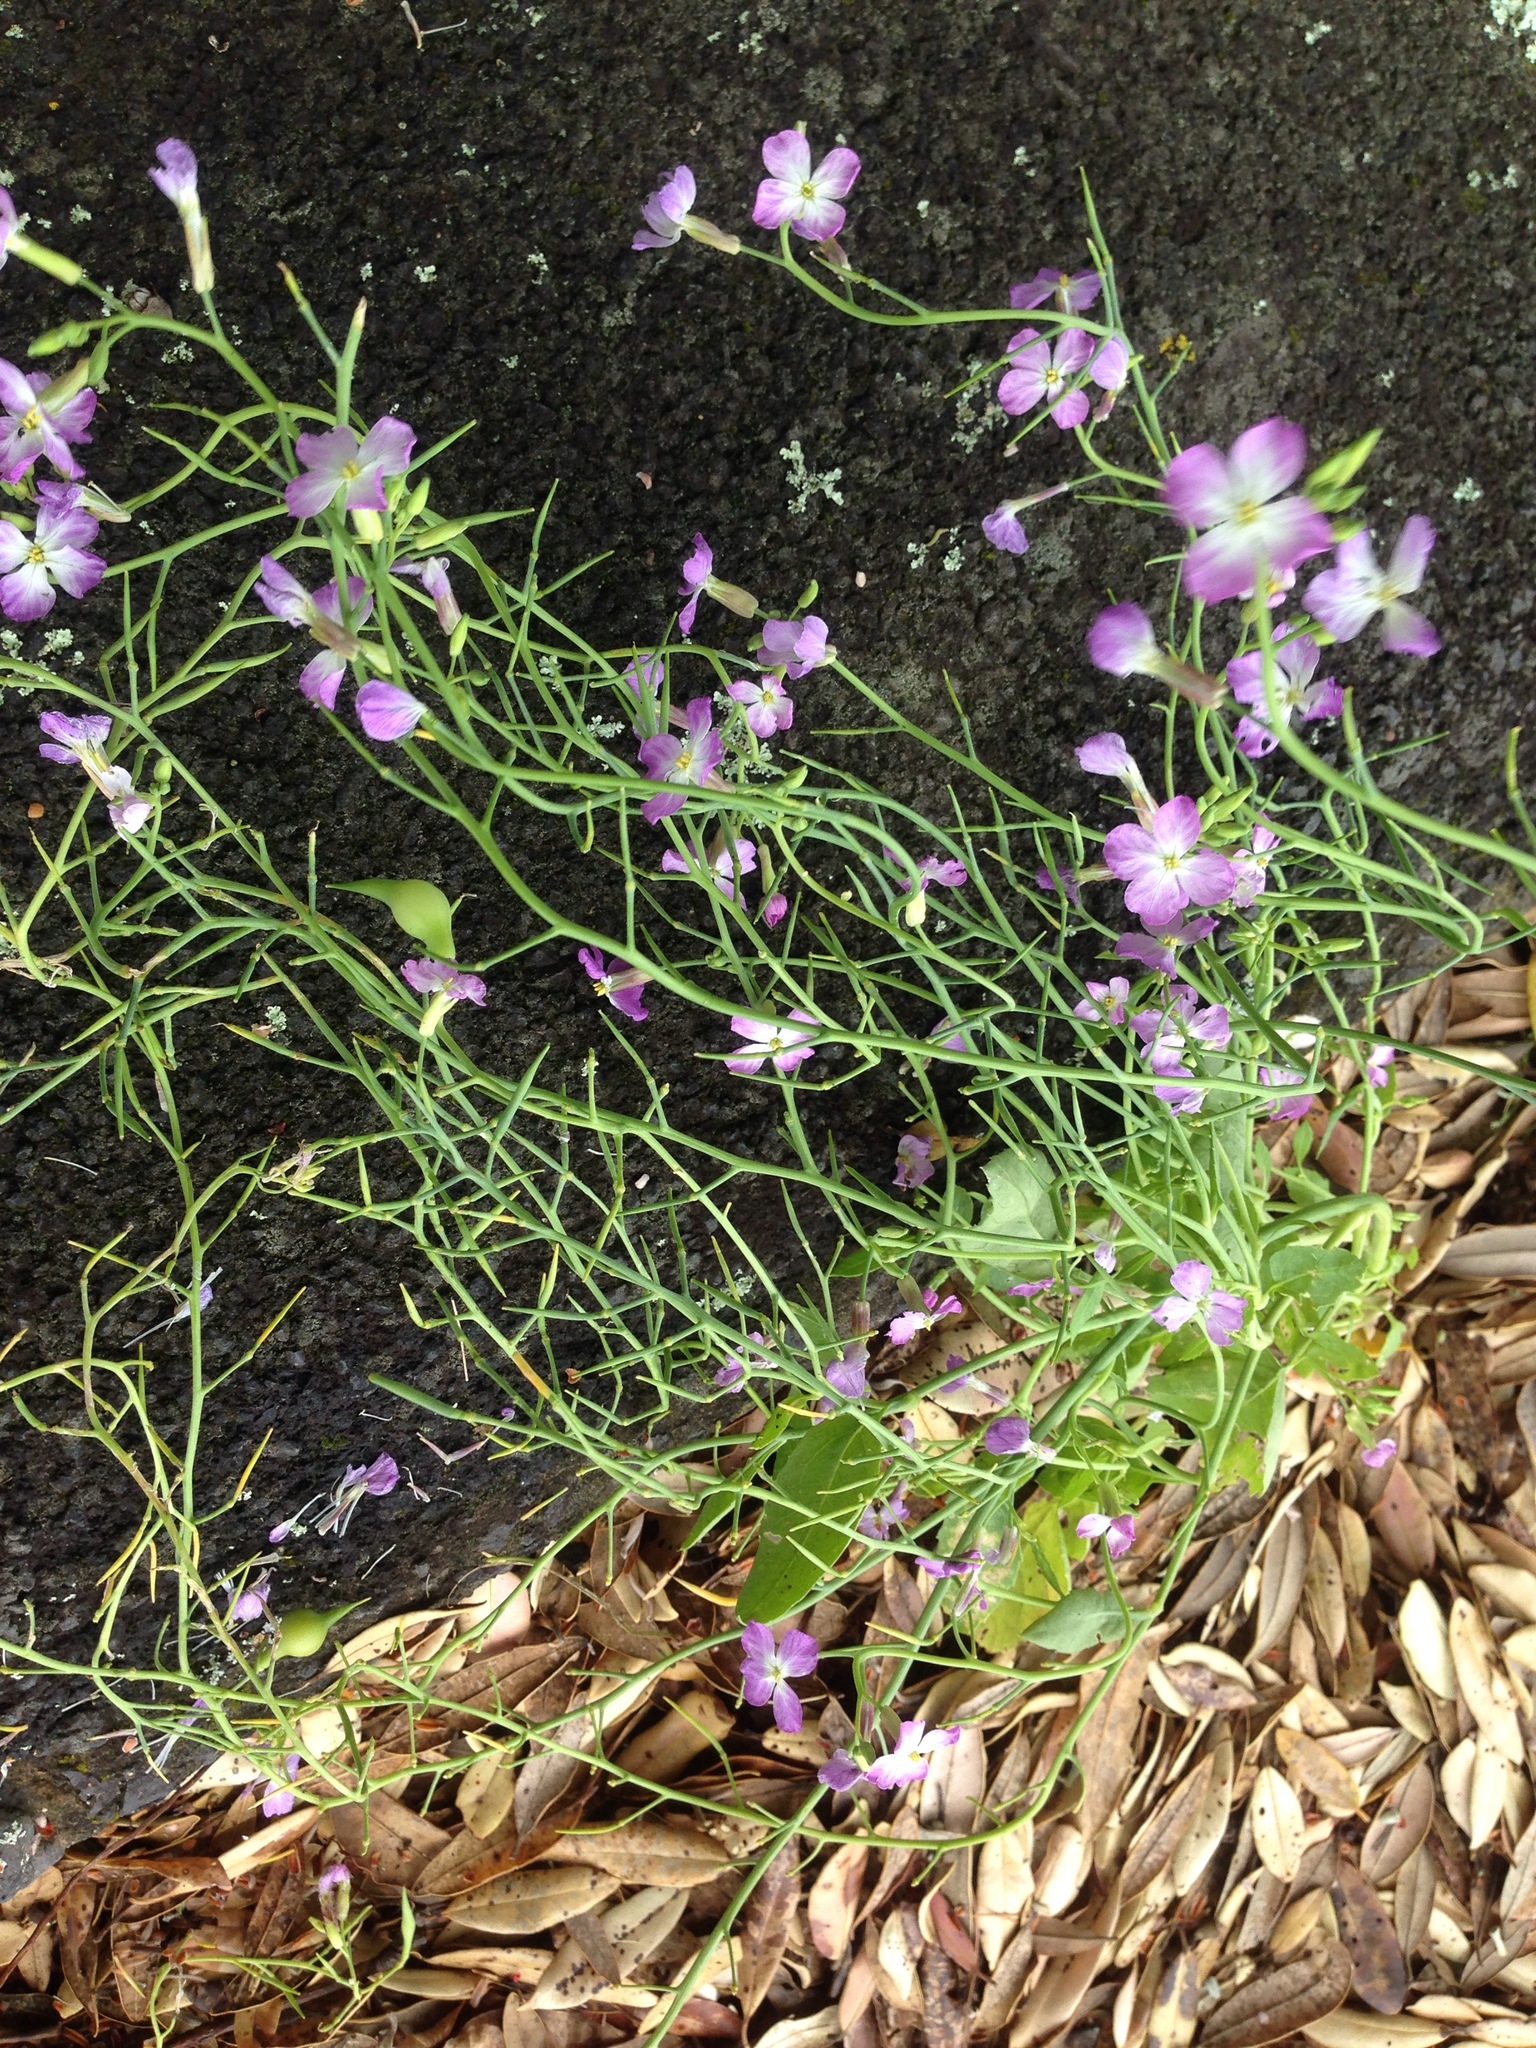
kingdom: Plantae
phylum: Tracheophyta
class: Magnoliopsida
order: Brassicales
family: Brassicaceae
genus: Raphanus
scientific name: Raphanus sativus
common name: Cultivated radish
